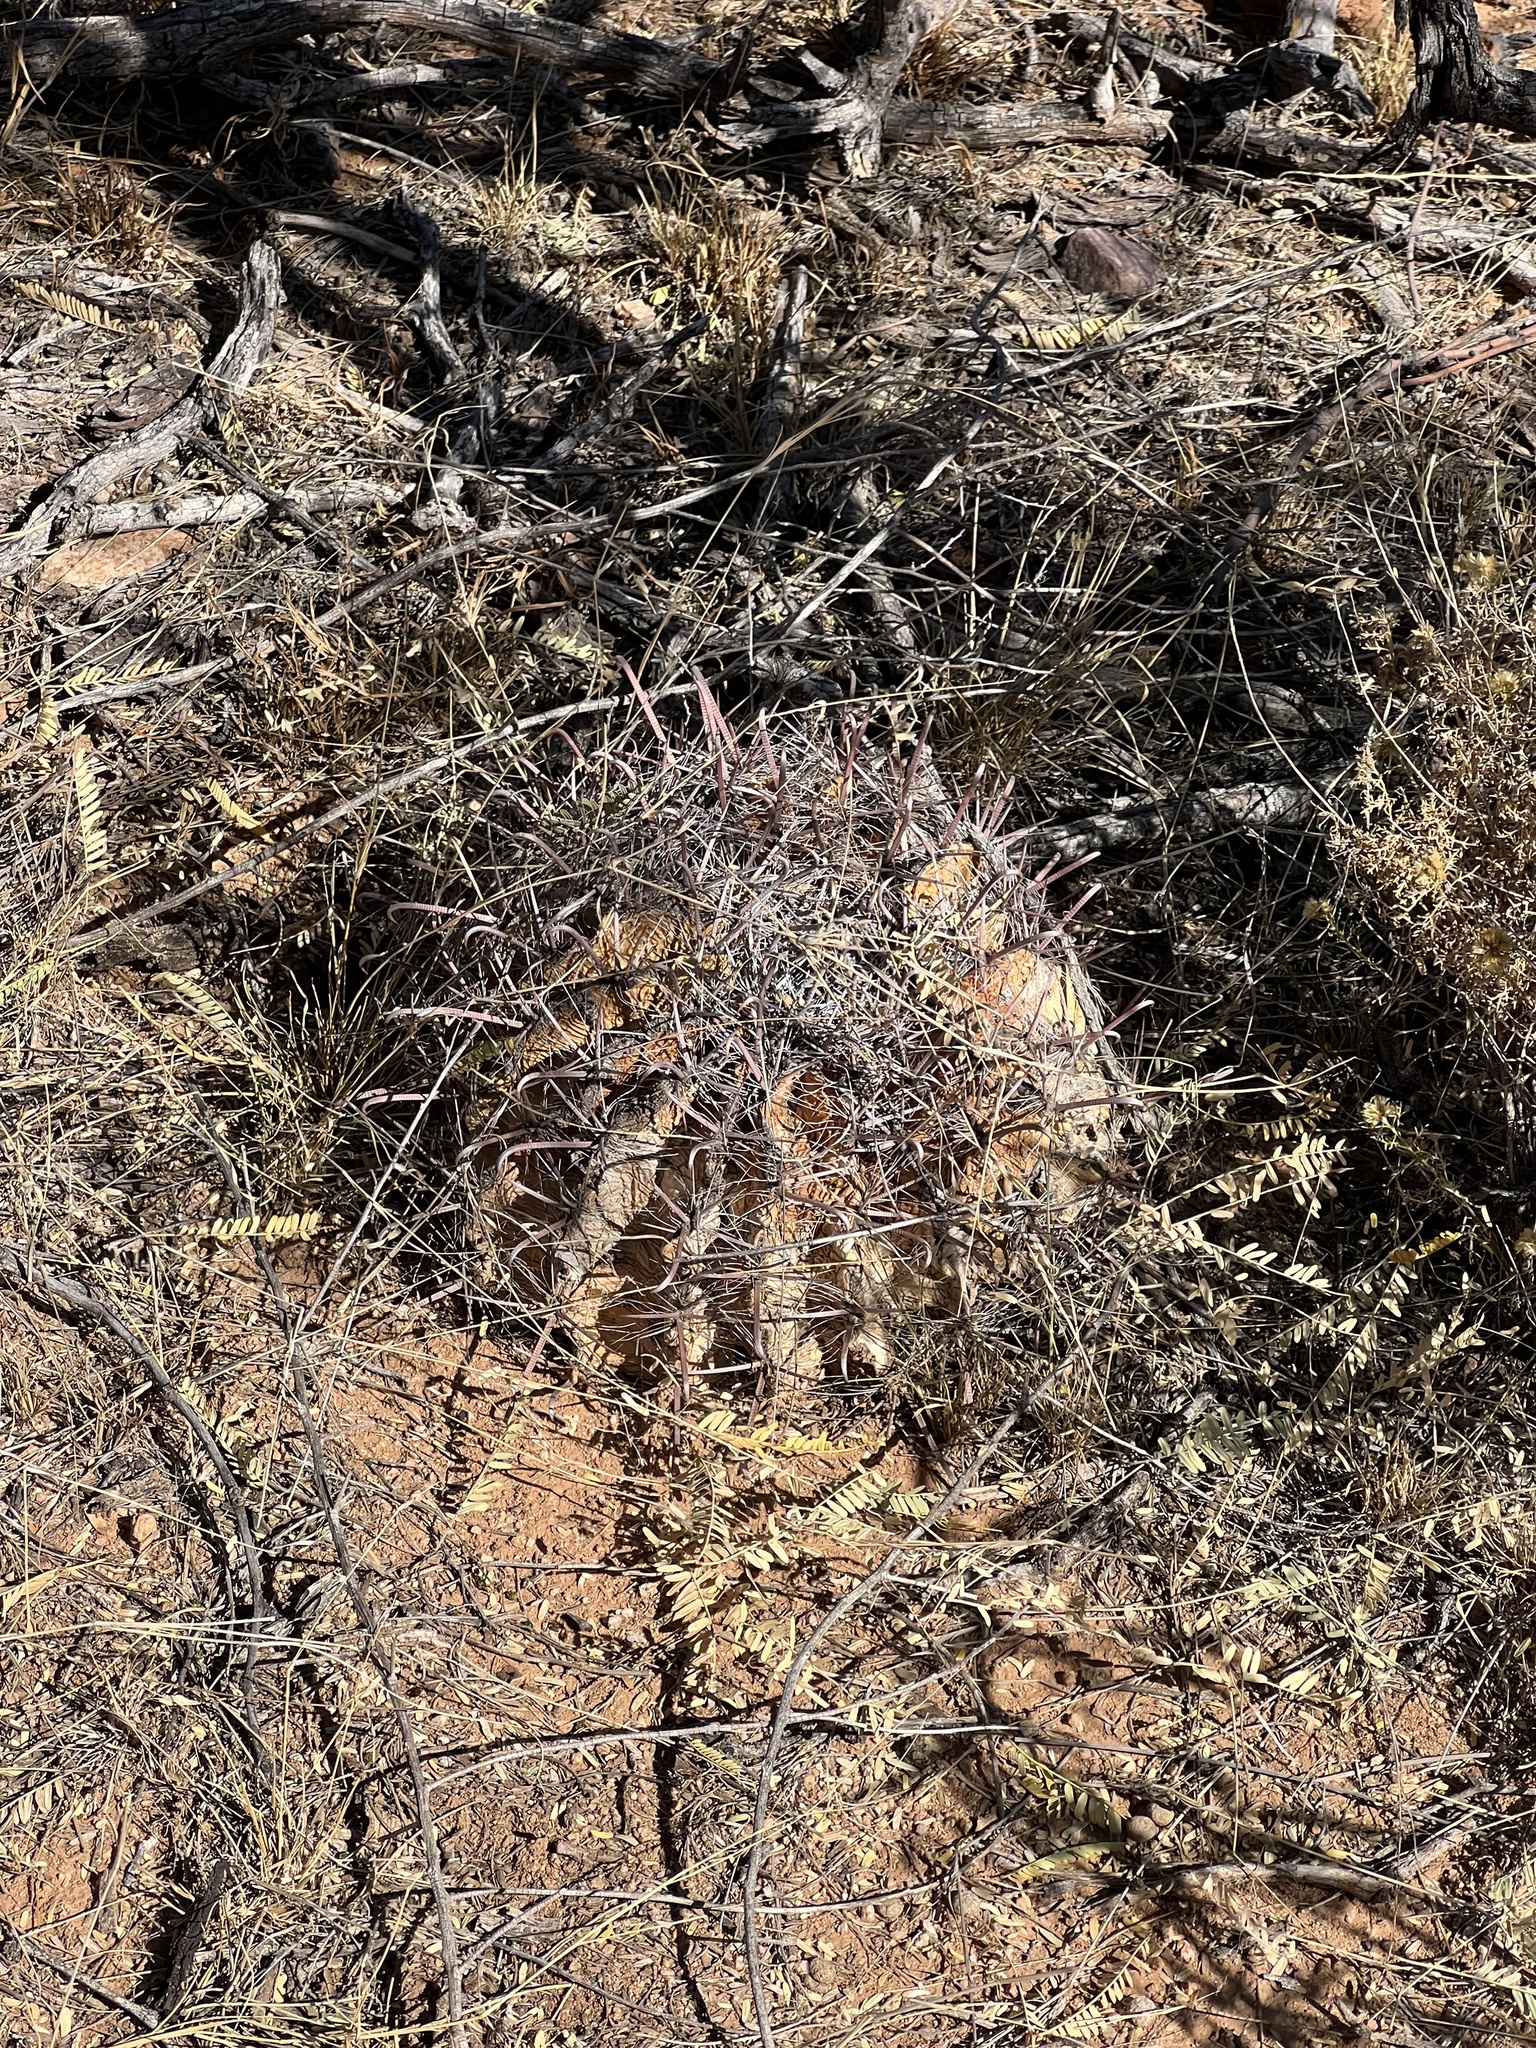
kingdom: Plantae
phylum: Tracheophyta
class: Magnoliopsida
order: Caryophyllales
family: Cactaceae
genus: Ferocactus
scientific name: Ferocactus wislizeni
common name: Candy barrel cactus
